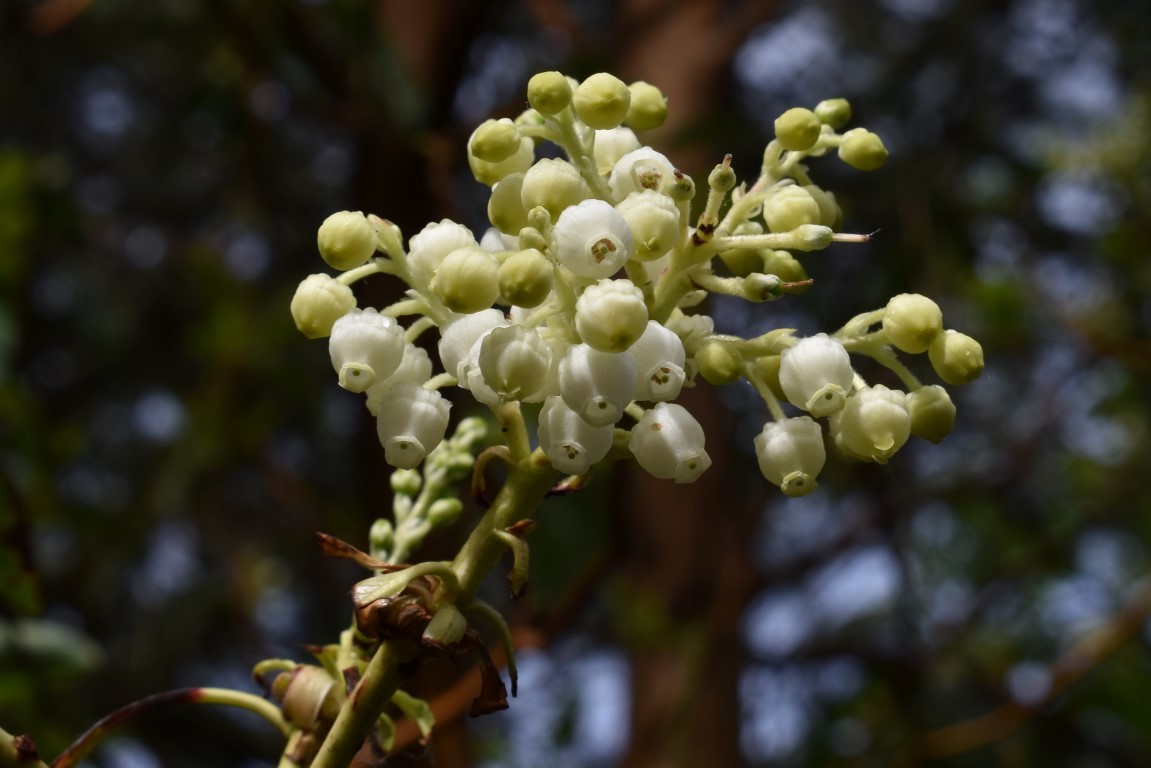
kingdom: Plantae
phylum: Tracheophyta
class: Magnoliopsida
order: Ericales
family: Ericaceae
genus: Arbutus
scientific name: Arbutus menziesii
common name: Pacific madrone
